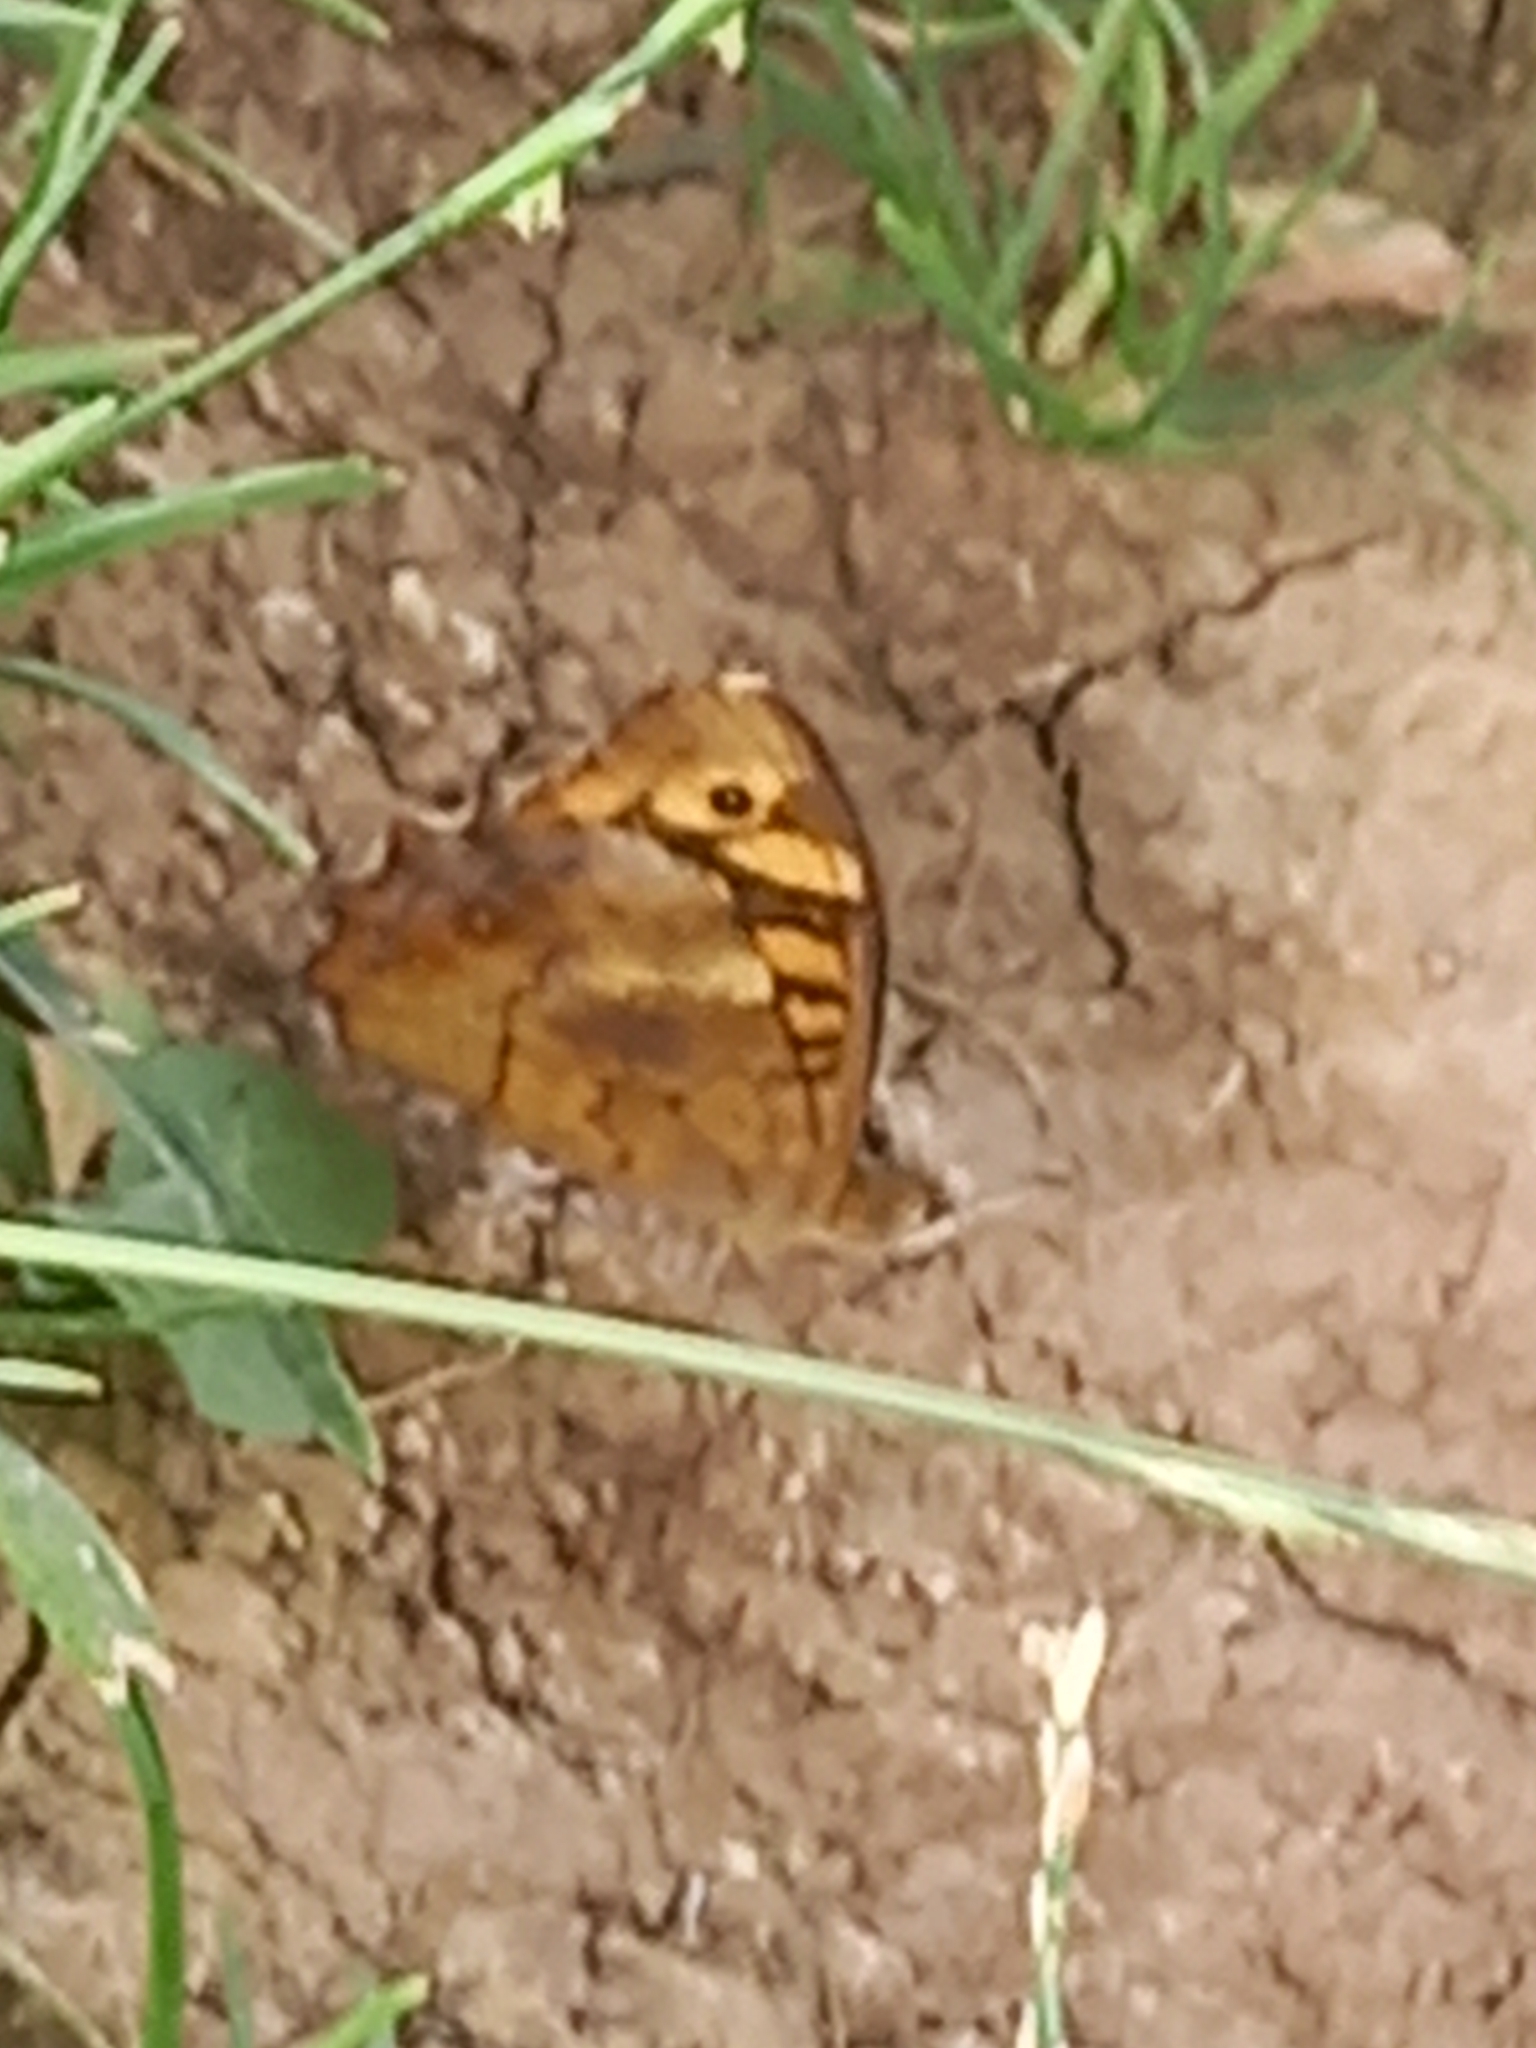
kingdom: Animalia
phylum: Arthropoda
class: Insecta
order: Lepidoptera
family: Nymphalidae
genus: Pararge
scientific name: Pararge aegeria
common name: Speckled wood
